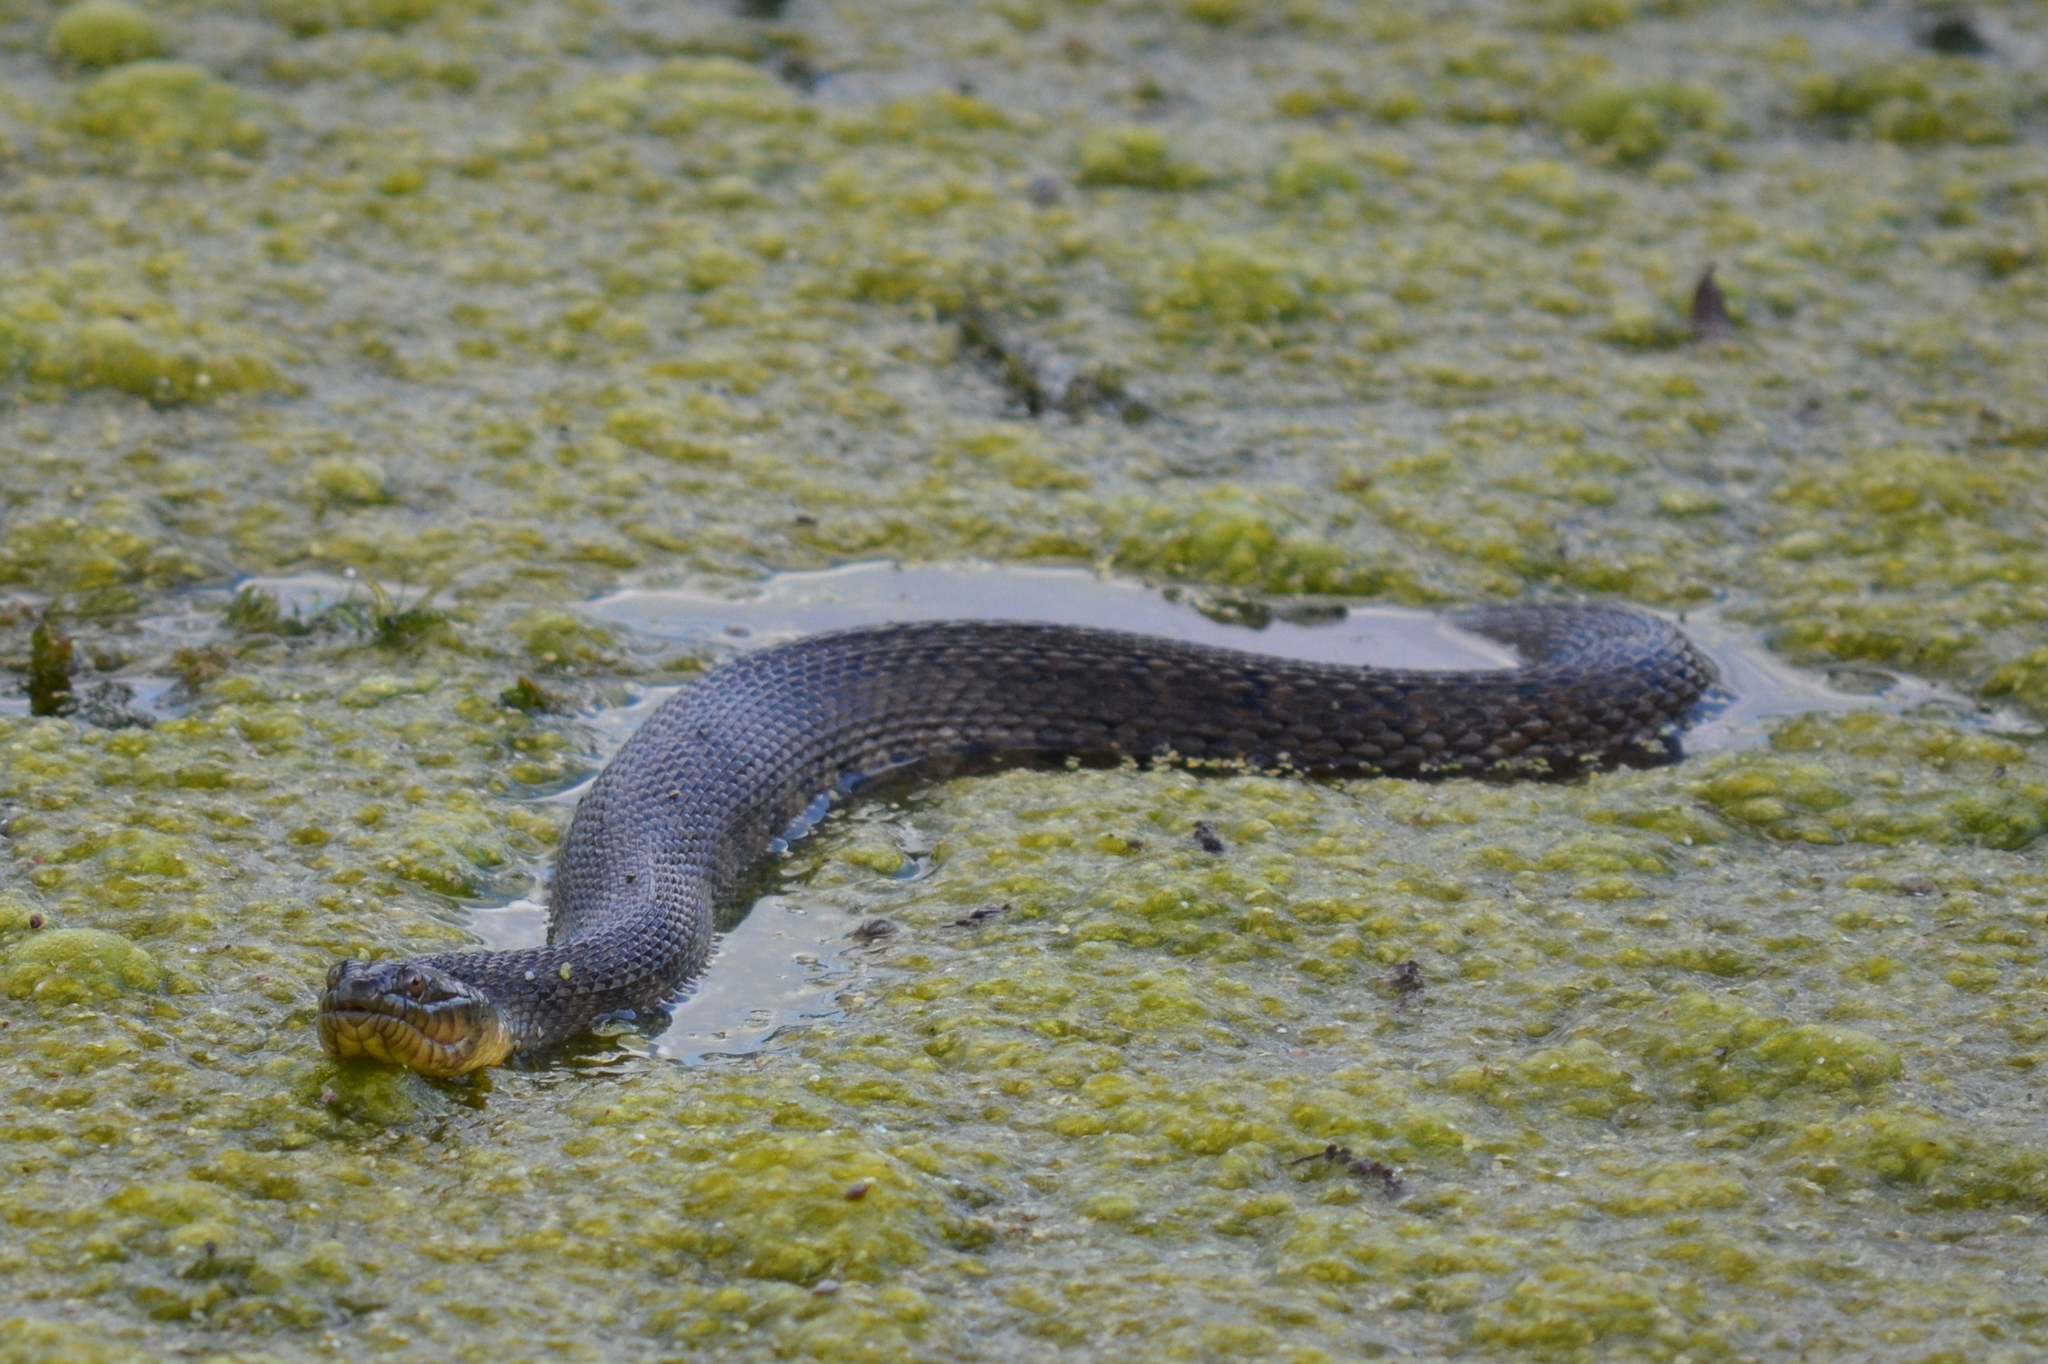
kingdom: Animalia
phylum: Chordata
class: Squamata
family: Colubridae
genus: Nerodia
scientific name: Nerodia cyclopion
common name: Mississippi green water snake
